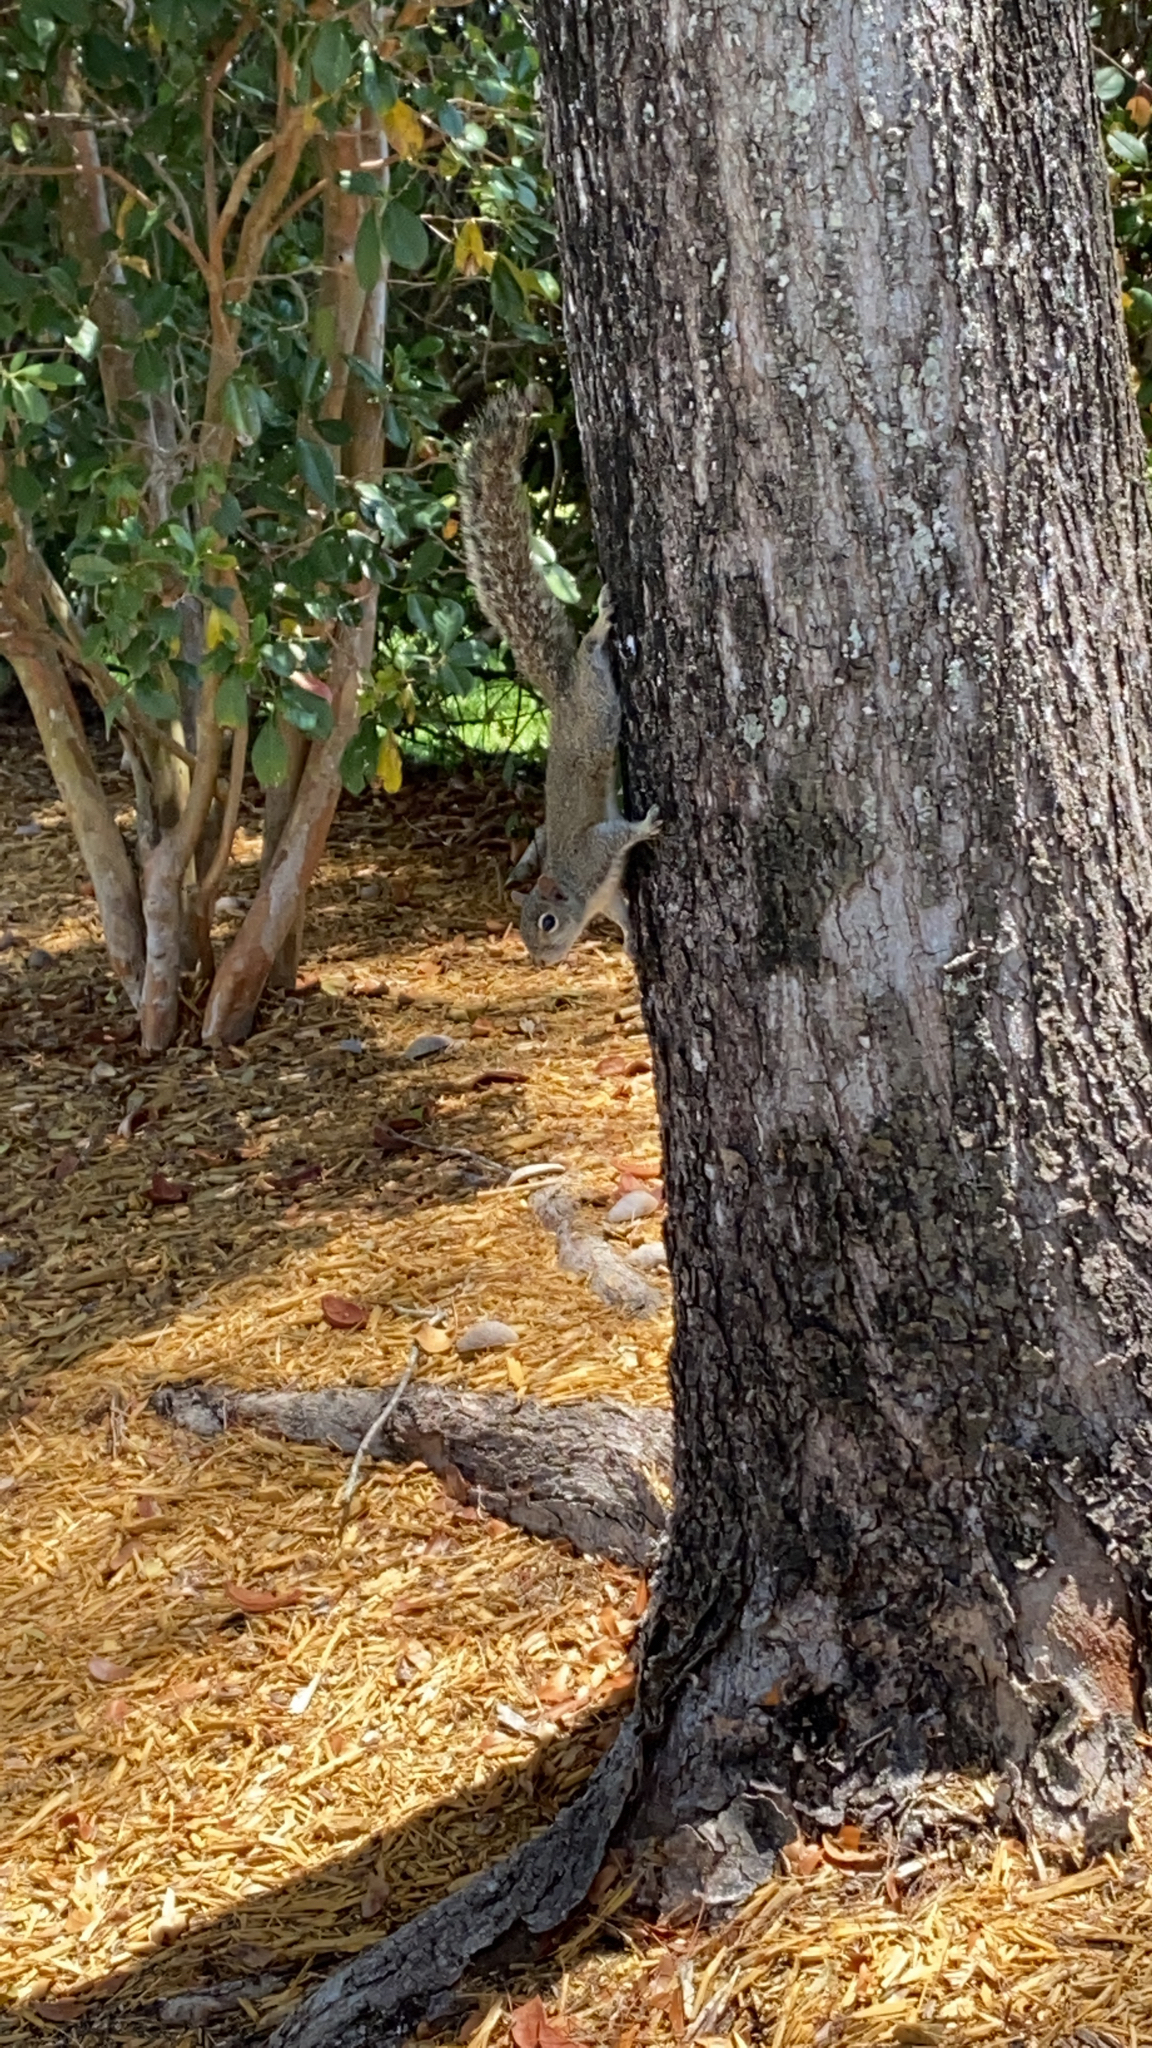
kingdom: Animalia
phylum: Chordata
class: Mammalia
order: Rodentia
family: Sciuridae
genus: Sciurus
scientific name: Sciurus carolinensis
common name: Eastern gray squirrel
